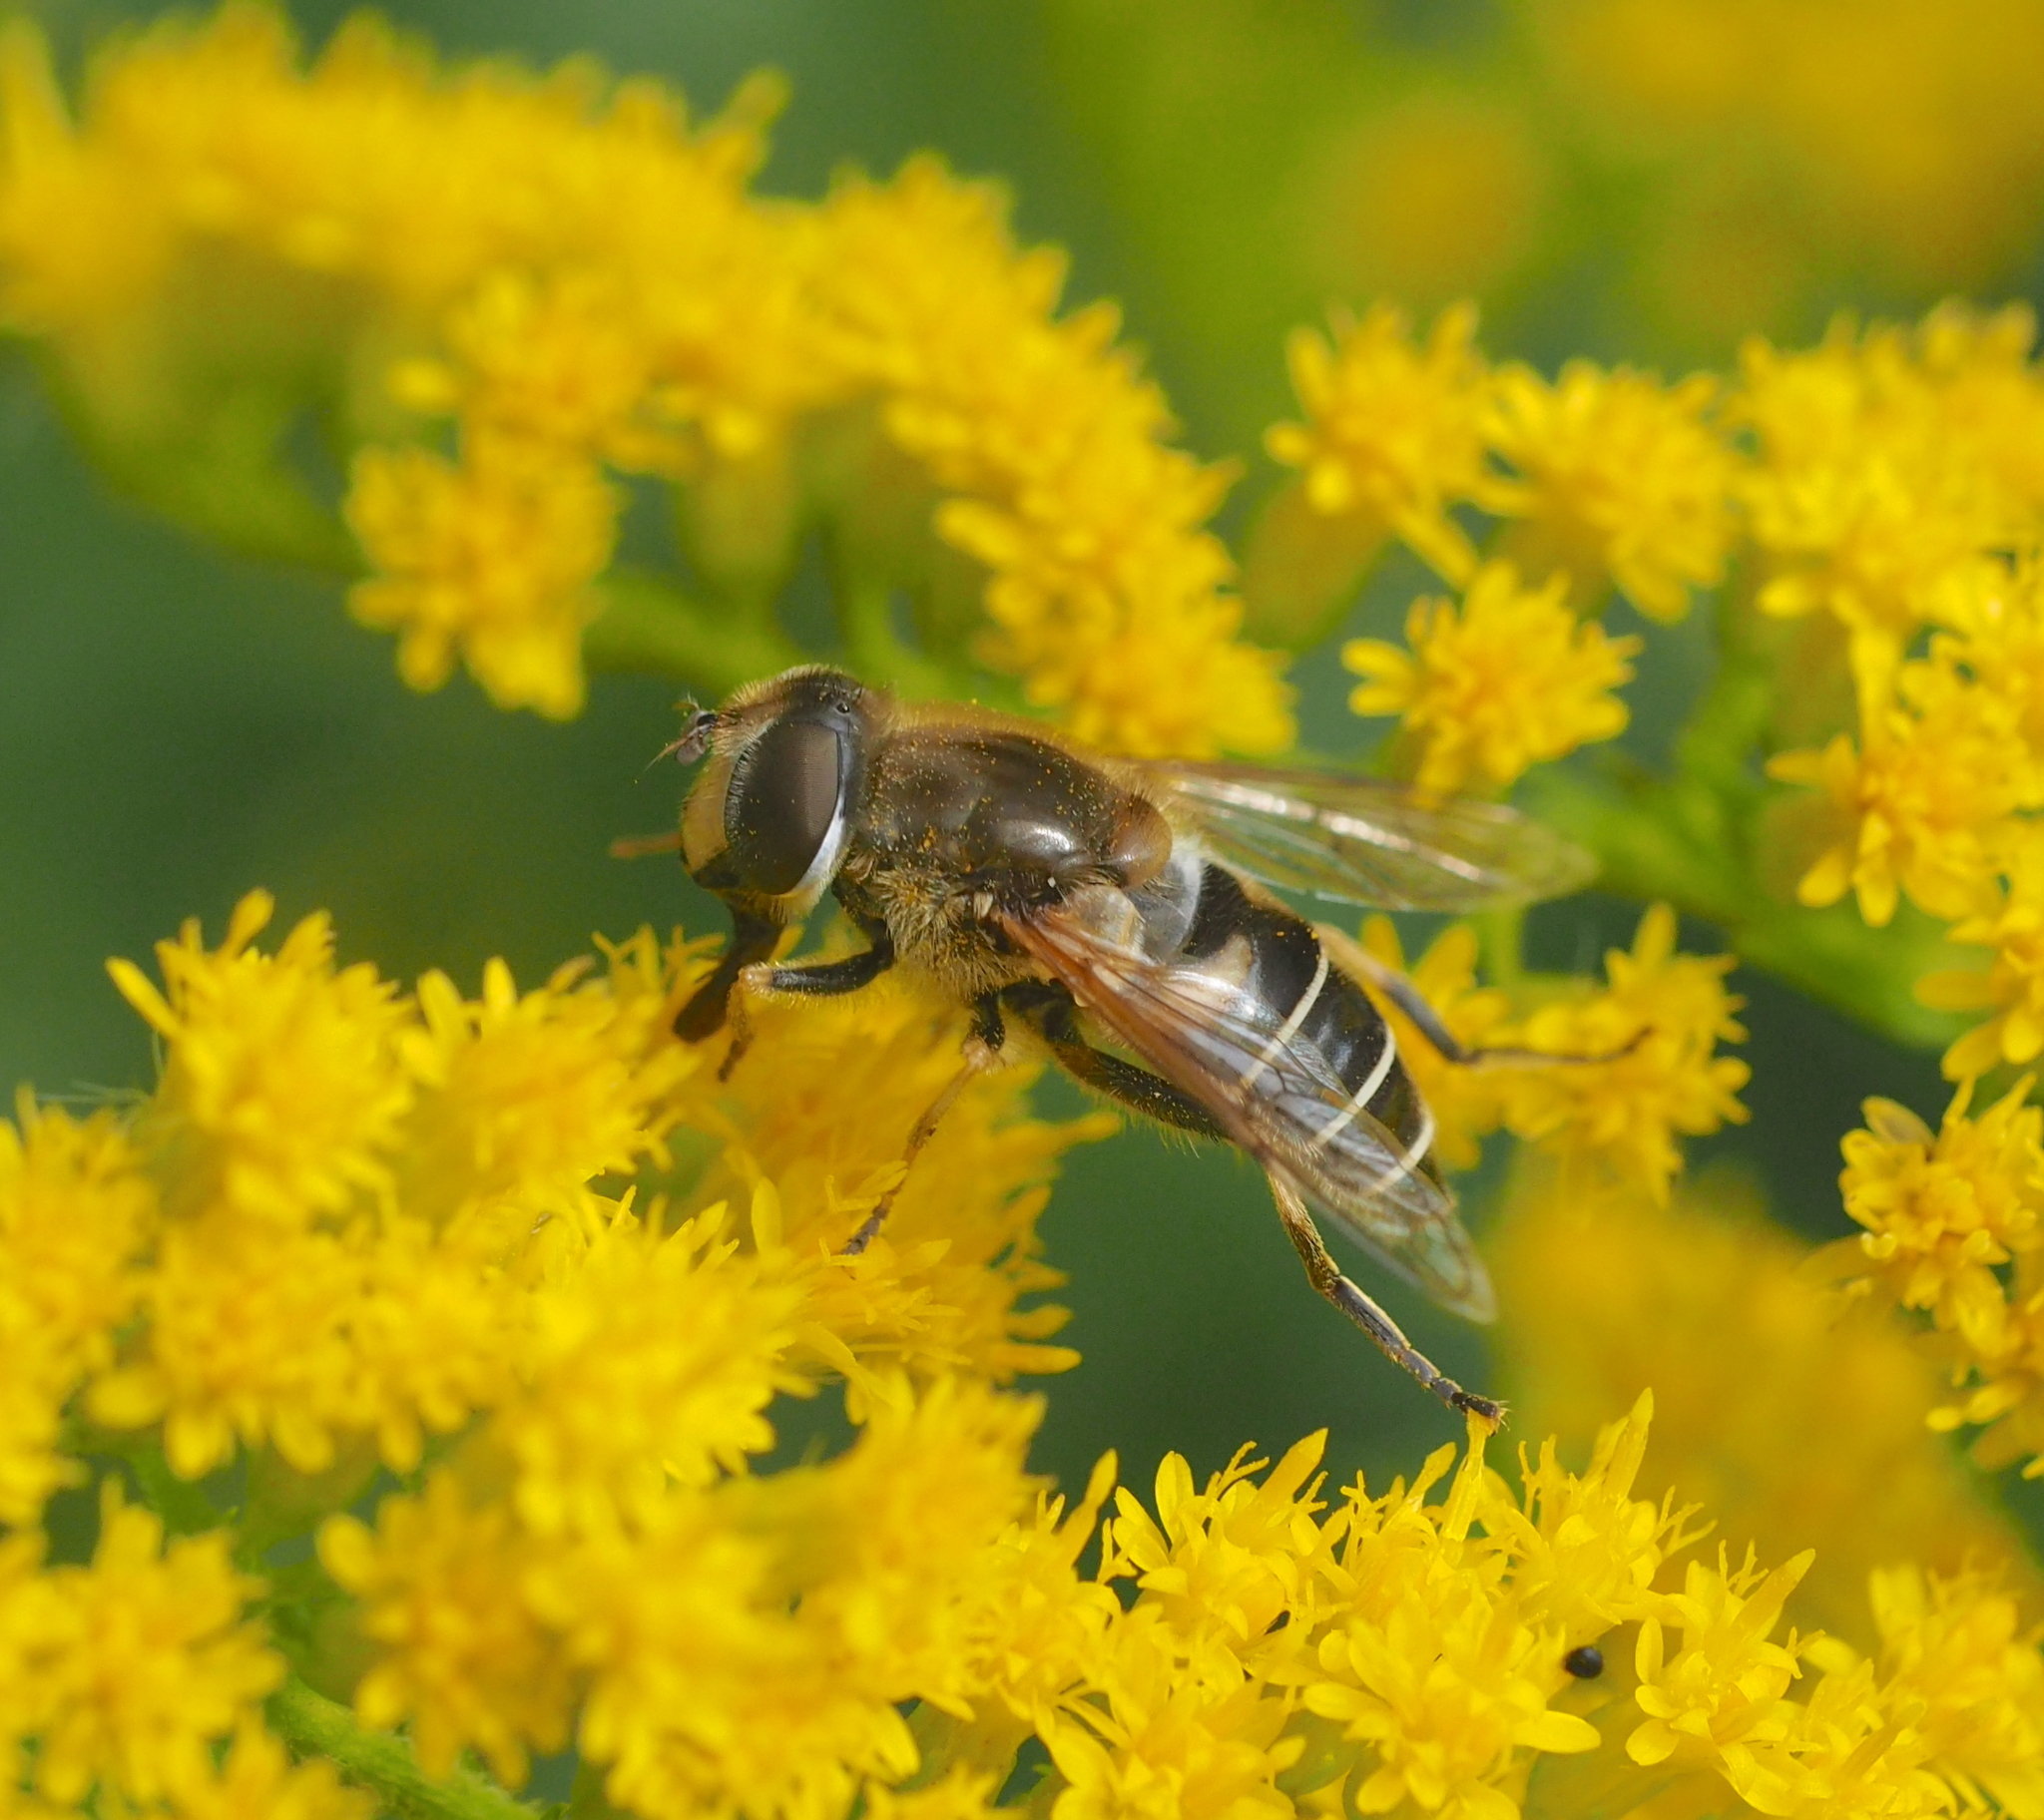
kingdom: Animalia
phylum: Arthropoda
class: Insecta
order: Diptera
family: Syrphidae
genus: Eristalis
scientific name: Eristalis nemorum
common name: Orange-spined drone fly
